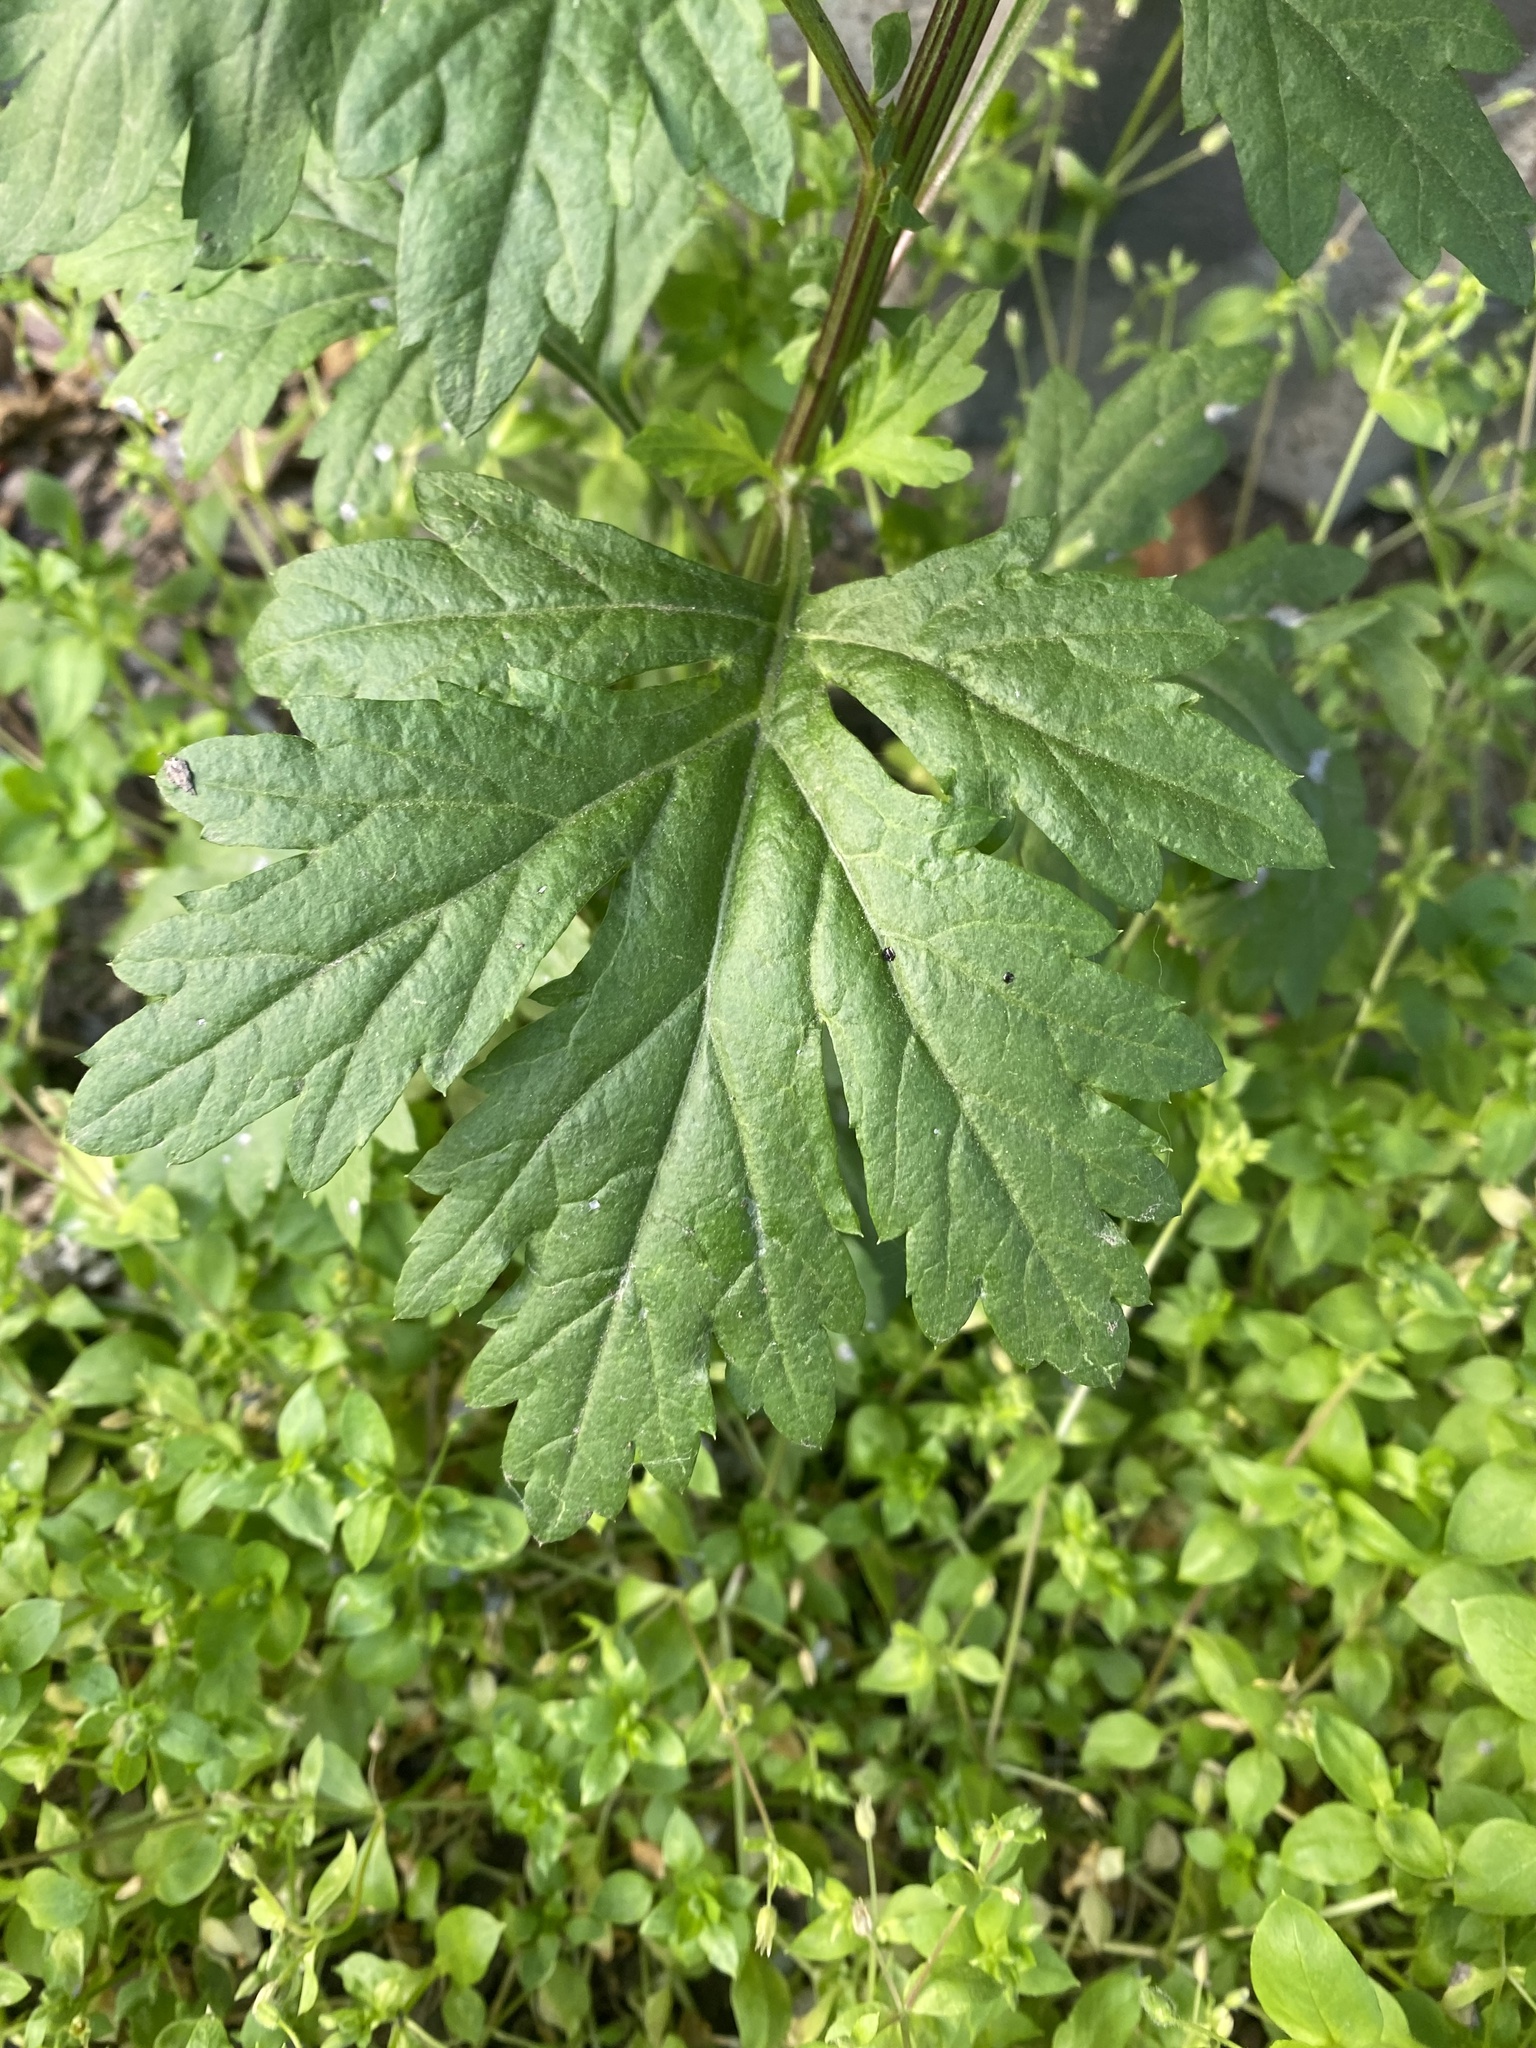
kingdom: Plantae
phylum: Tracheophyta
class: Magnoliopsida
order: Asterales
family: Asteraceae
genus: Artemisia
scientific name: Artemisia vulgaris
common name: Mugwort
